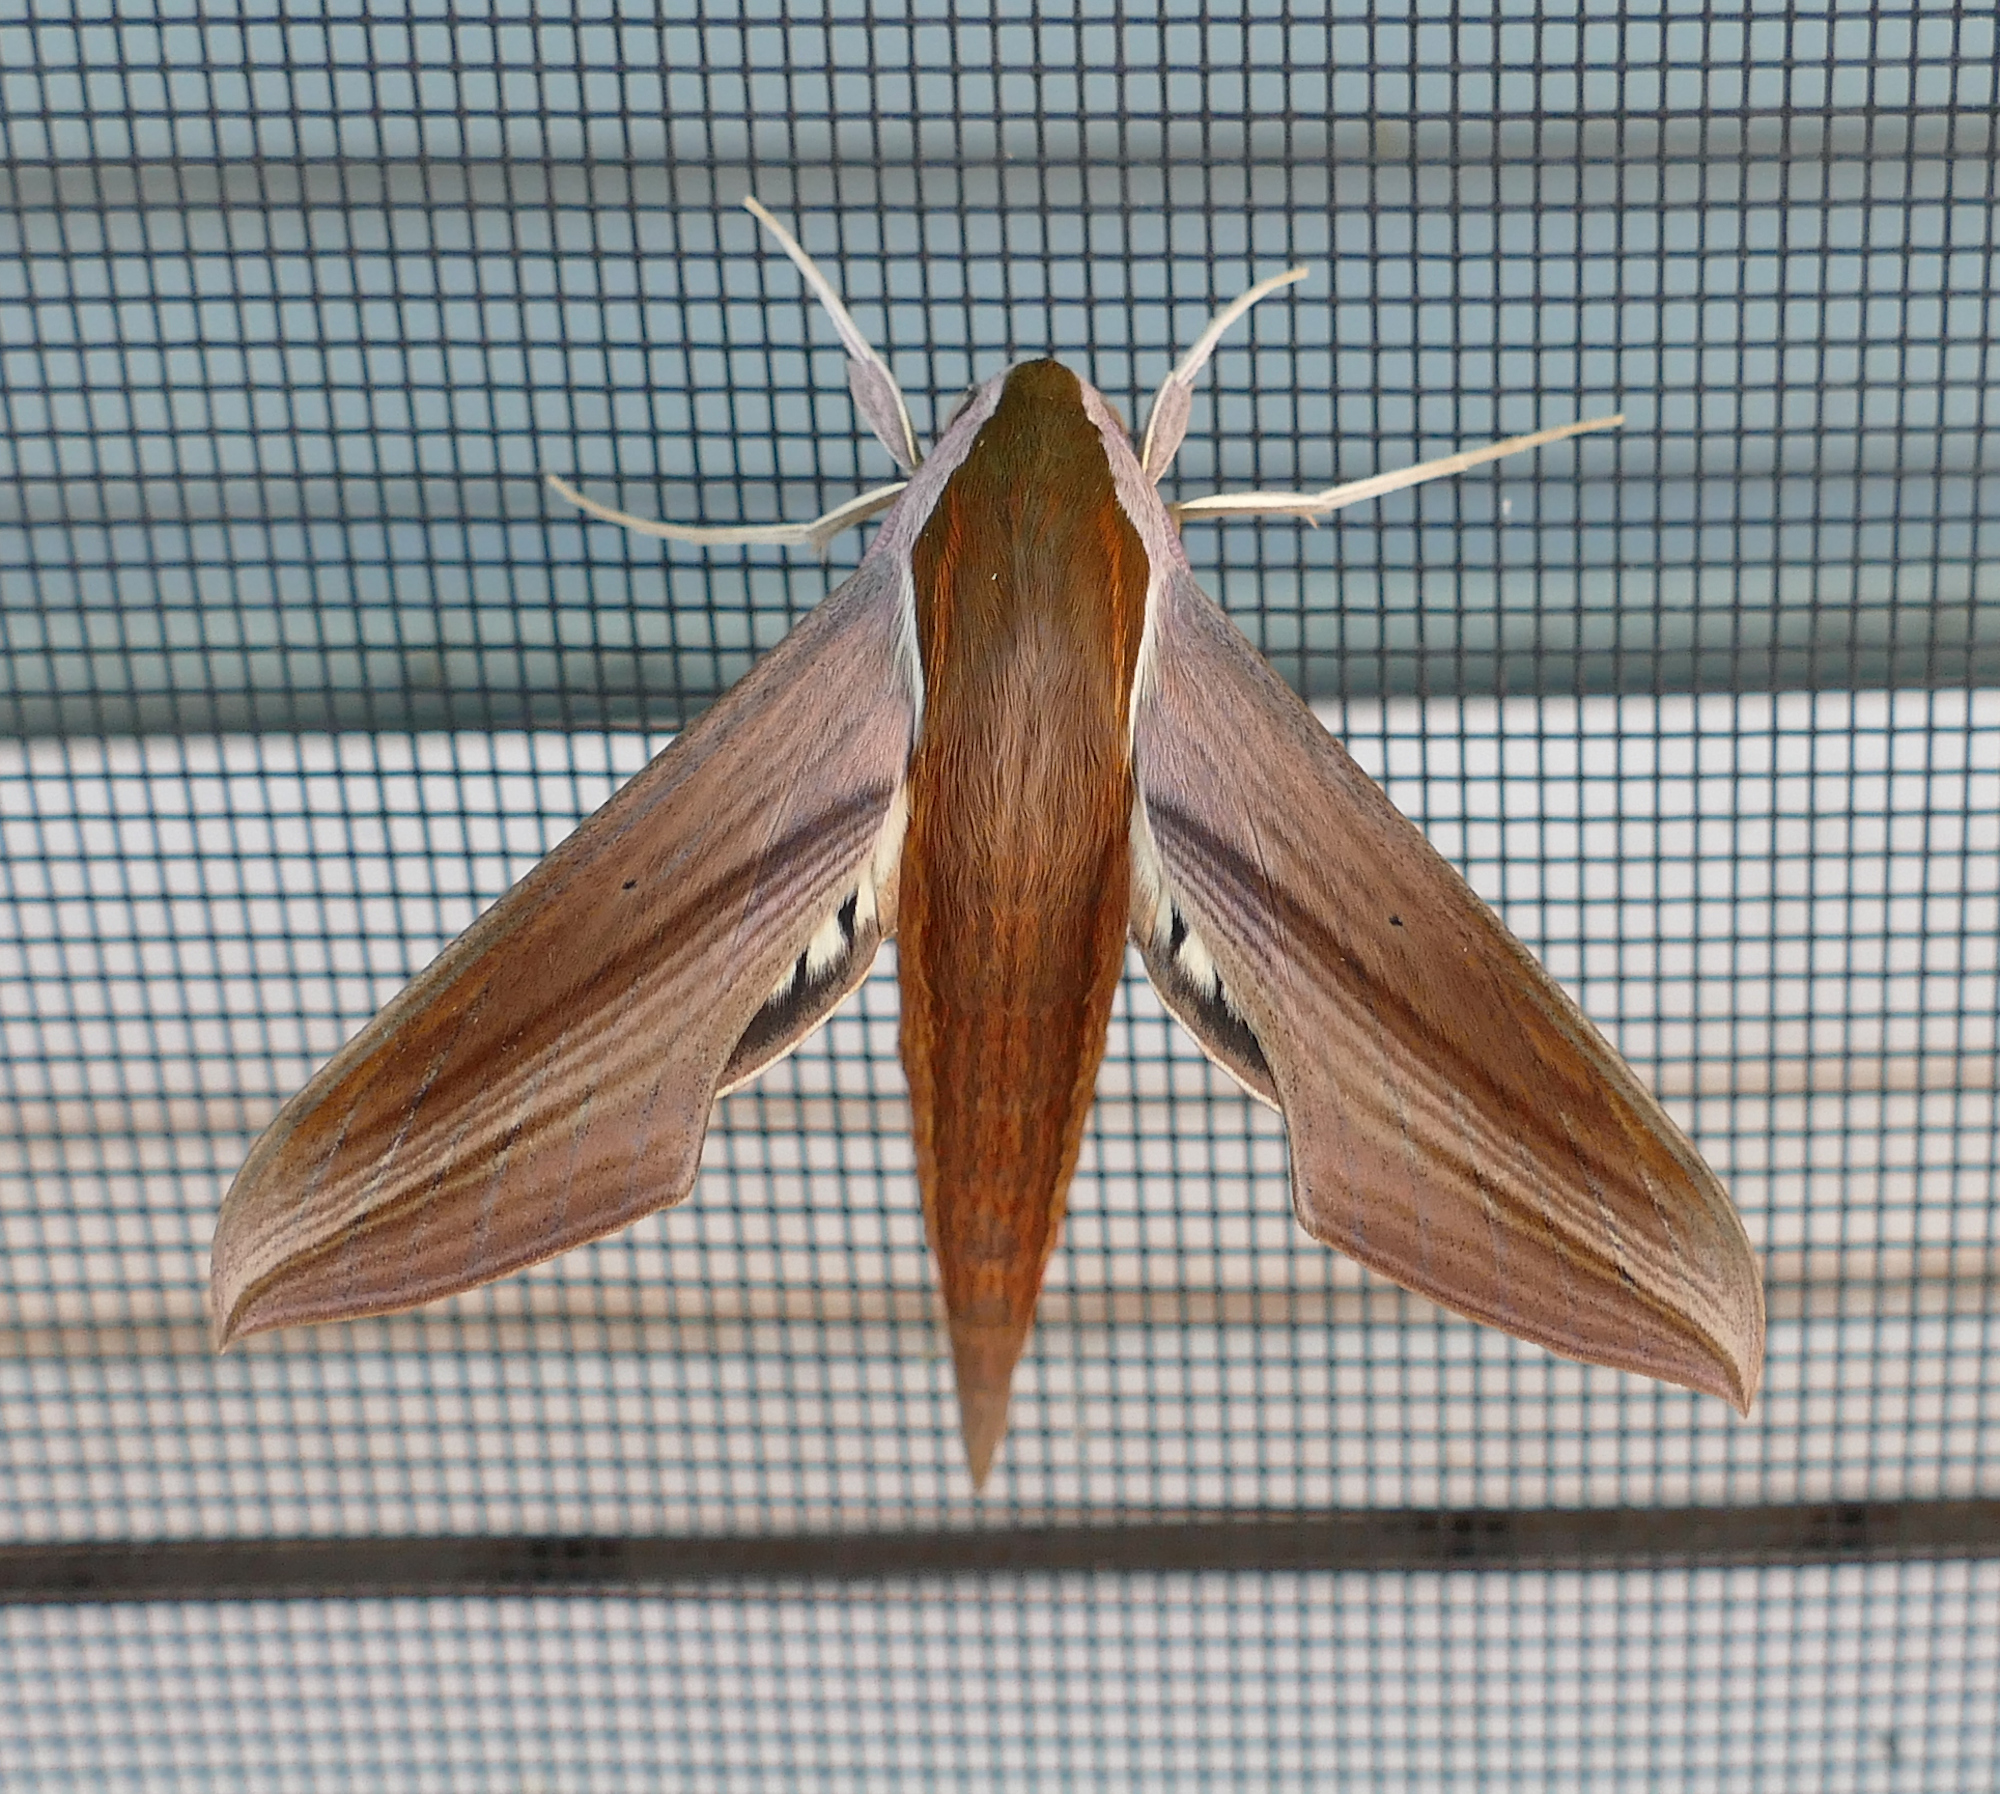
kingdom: Animalia
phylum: Arthropoda
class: Insecta
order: Lepidoptera
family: Sphingidae
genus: Xylophanes
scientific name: Xylophanes tersa
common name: Tersa sphinx
